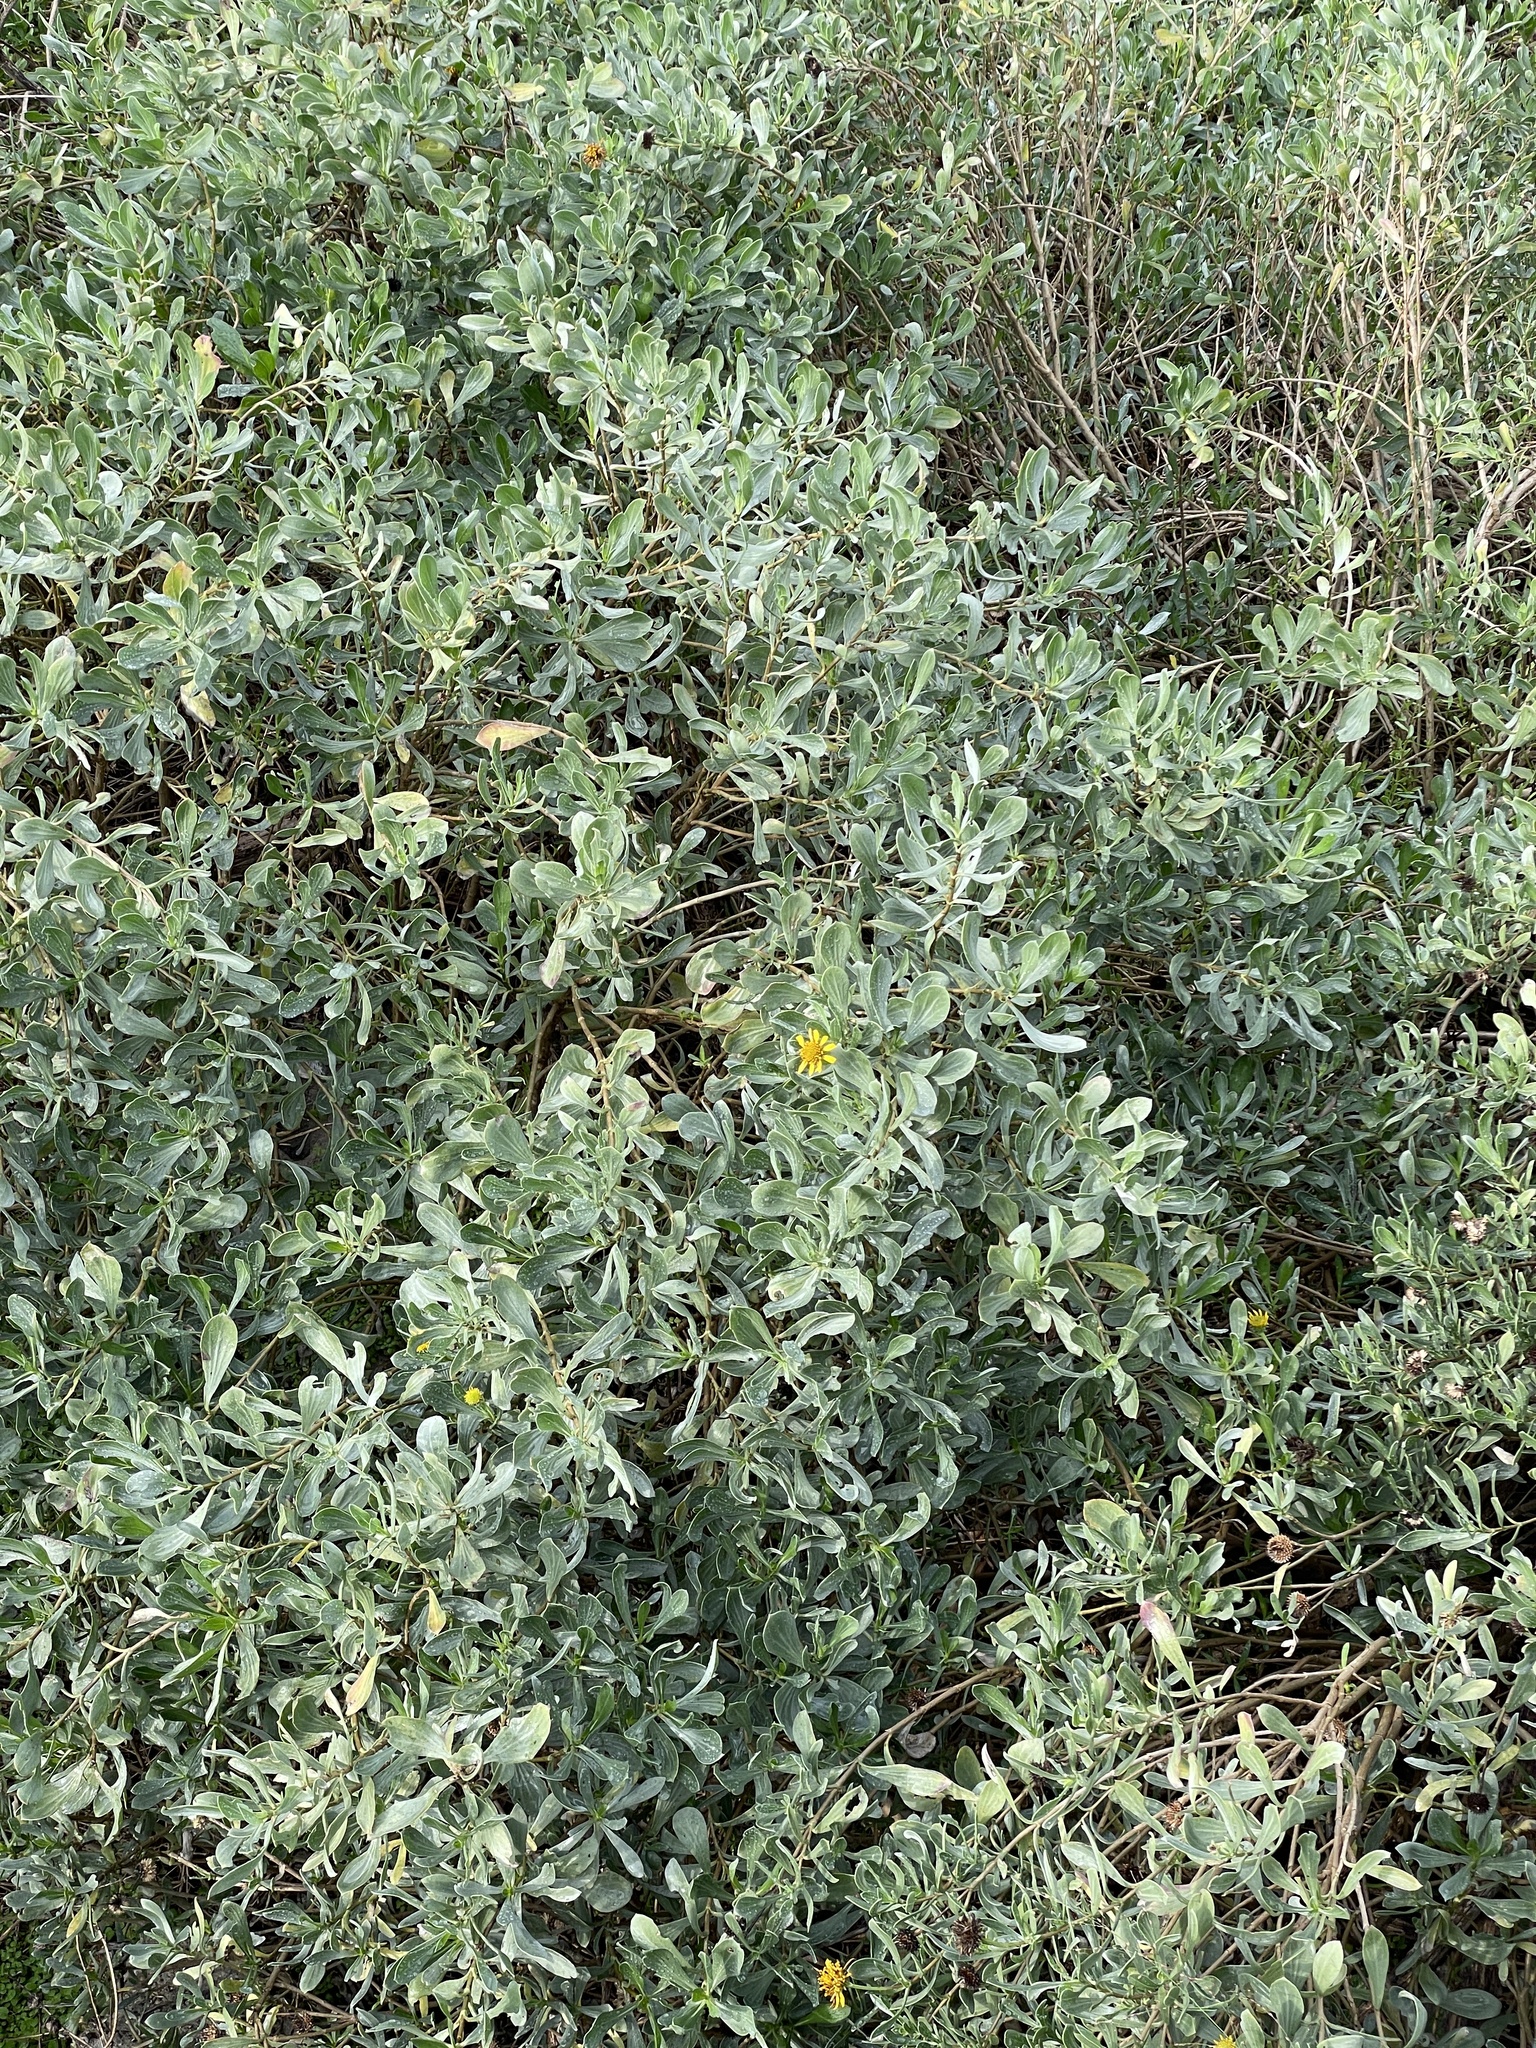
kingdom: Plantae
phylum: Tracheophyta
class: Magnoliopsida
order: Asterales
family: Asteraceae
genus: Borrichia
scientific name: Borrichia frutescens
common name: Sea oxeye
